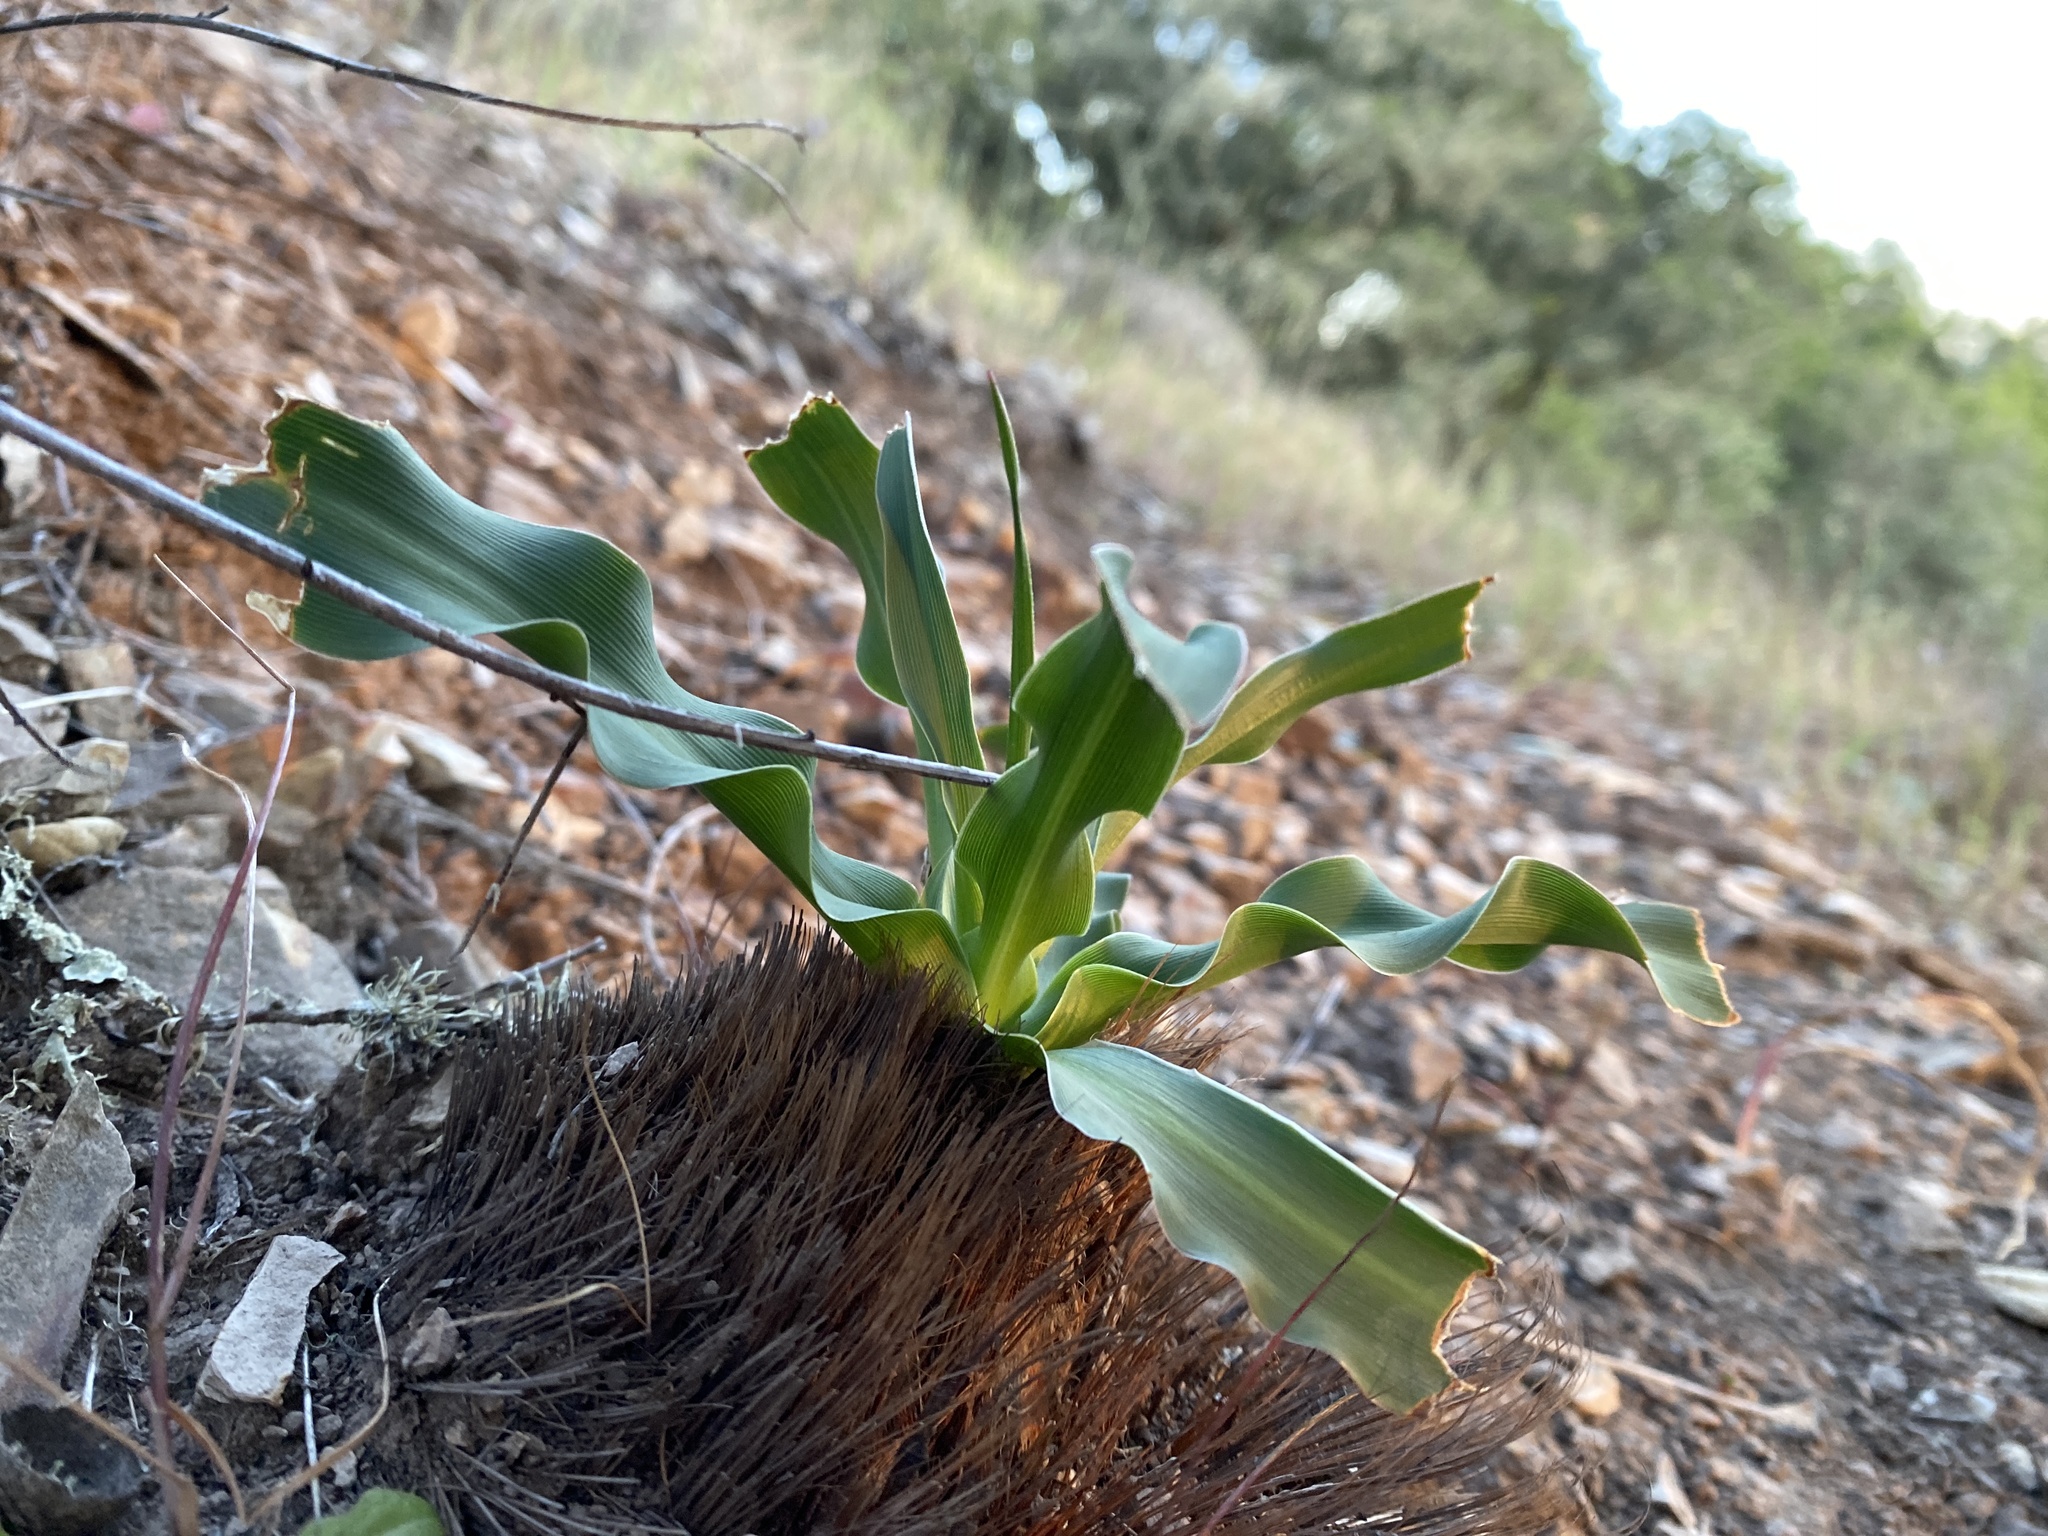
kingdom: Plantae
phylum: Tracheophyta
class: Liliopsida
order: Asparagales
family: Asparagaceae
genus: Chlorogalum
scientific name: Chlorogalum pomeridianum
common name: Amole
